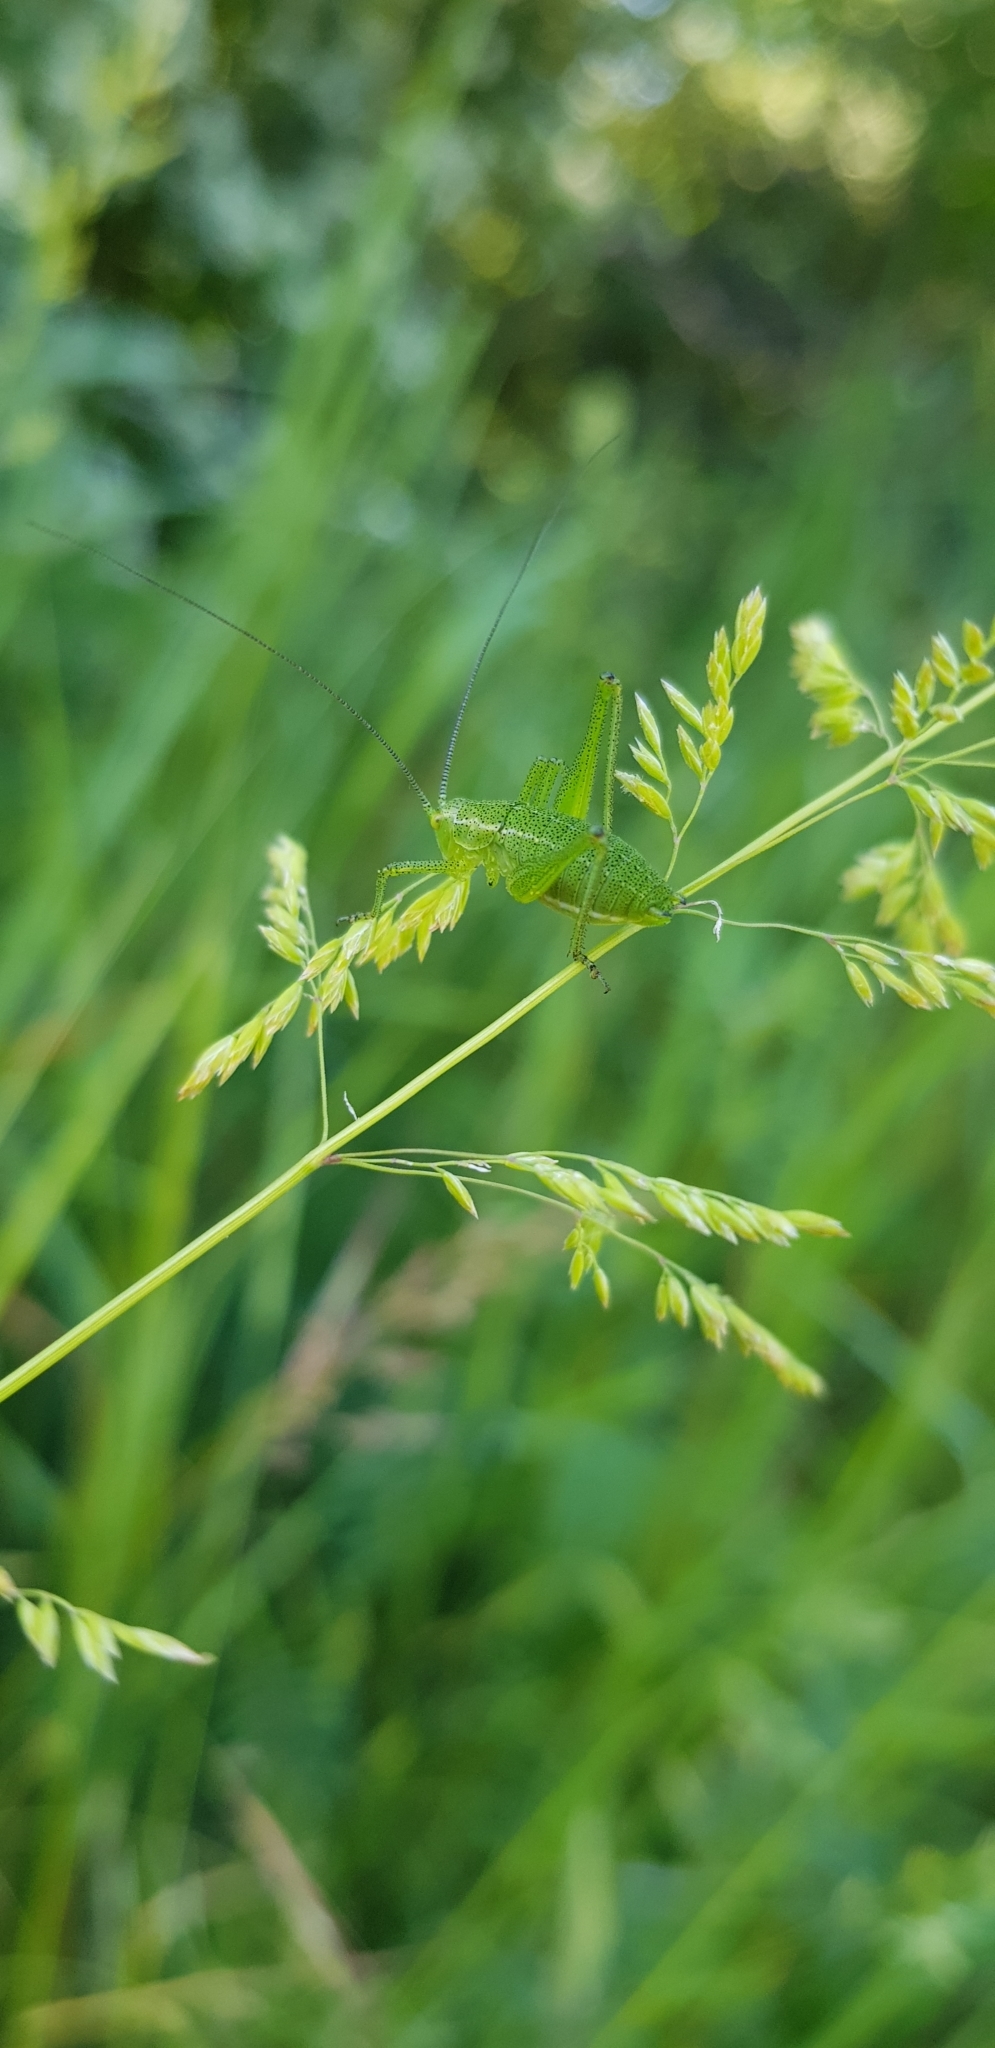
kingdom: Plantae
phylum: Tracheophyta
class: Liliopsida
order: Poales
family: Poaceae
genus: Poa
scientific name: Poa trivialis
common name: Rough bluegrass
